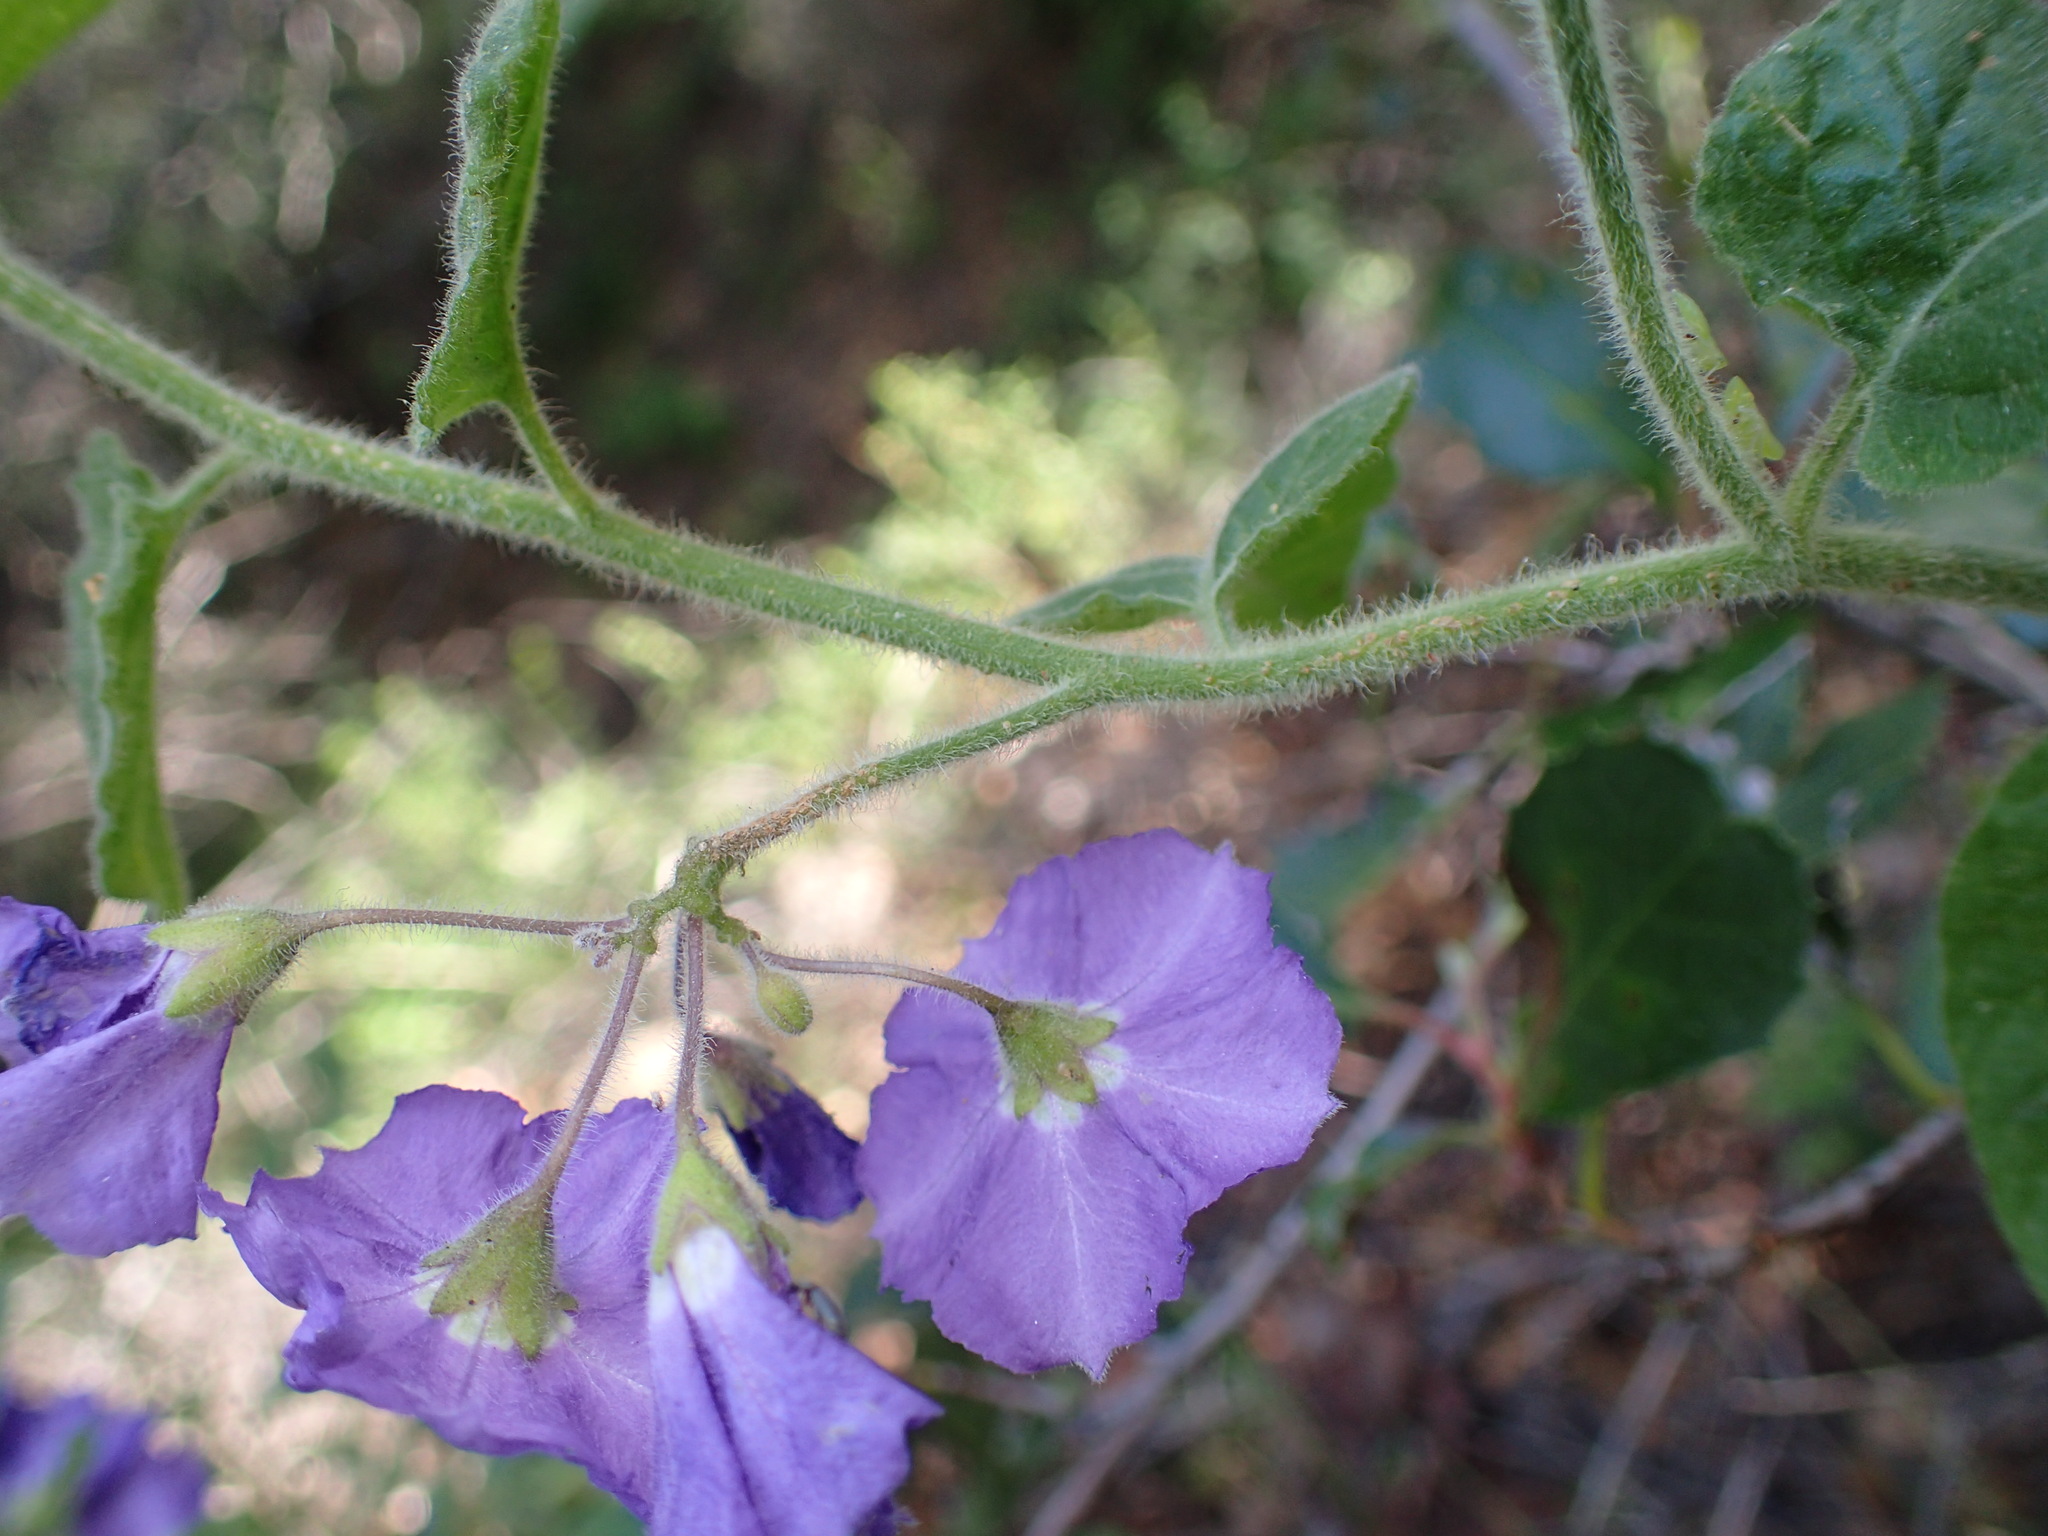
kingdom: Plantae
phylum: Tracheophyta
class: Magnoliopsida
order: Solanales
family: Solanaceae
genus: Solanum
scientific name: Solanum umbelliferum
